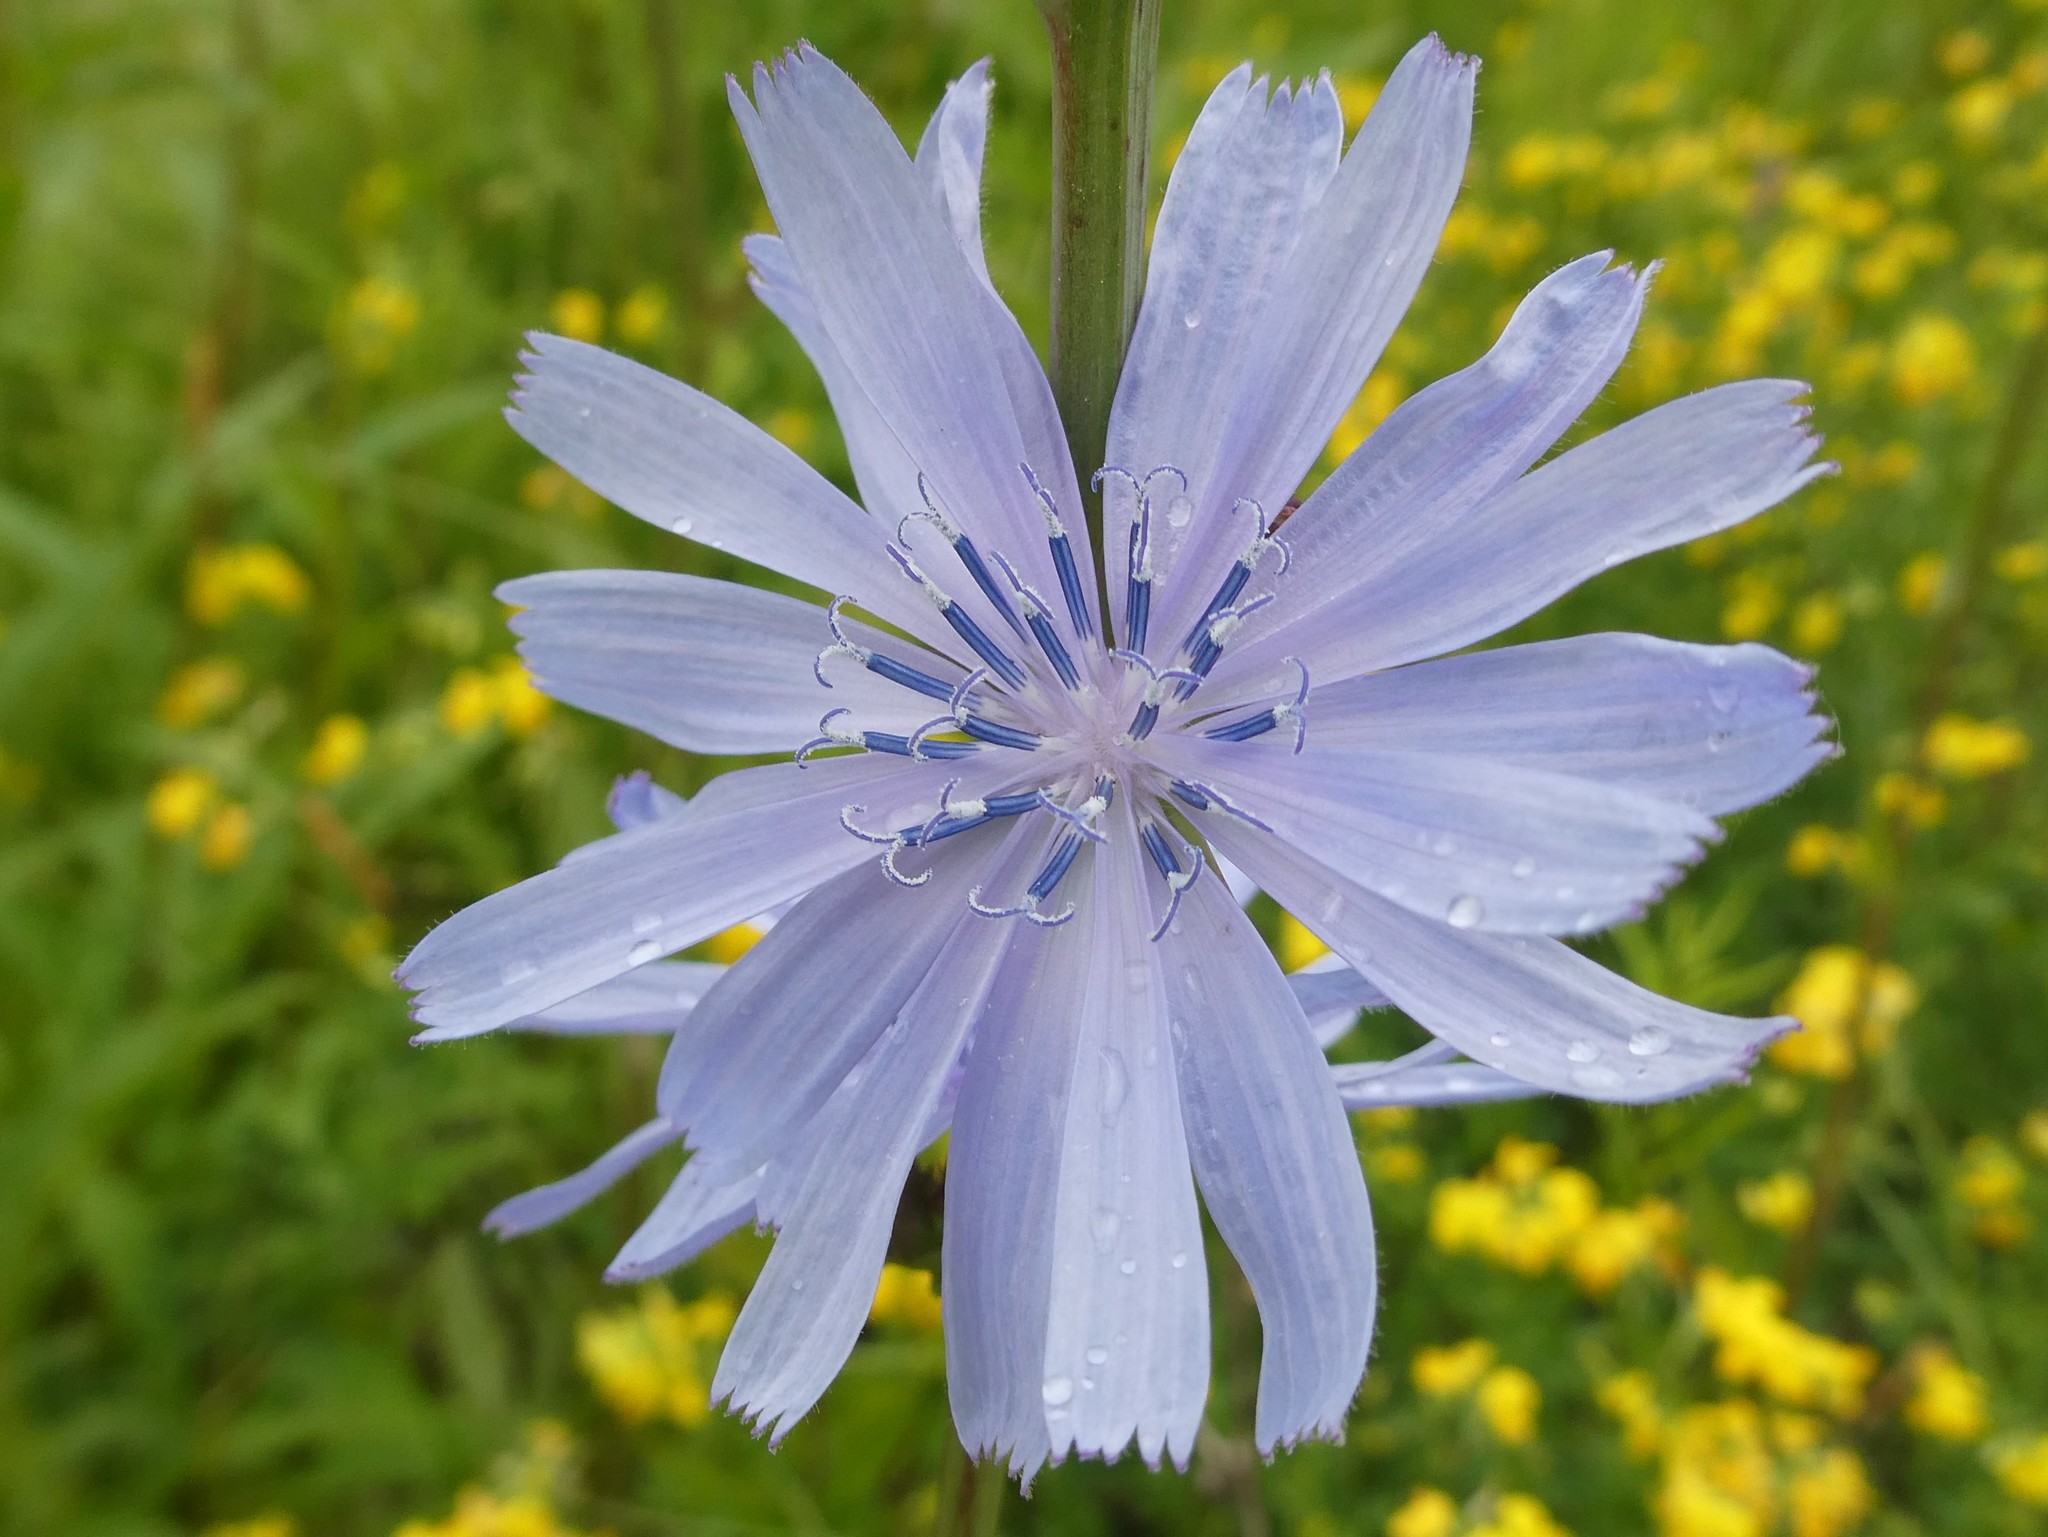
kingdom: Plantae
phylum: Tracheophyta
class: Magnoliopsida
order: Asterales
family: Asteraceae
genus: Cichorium
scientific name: Cichorium intybus
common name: Chicory
